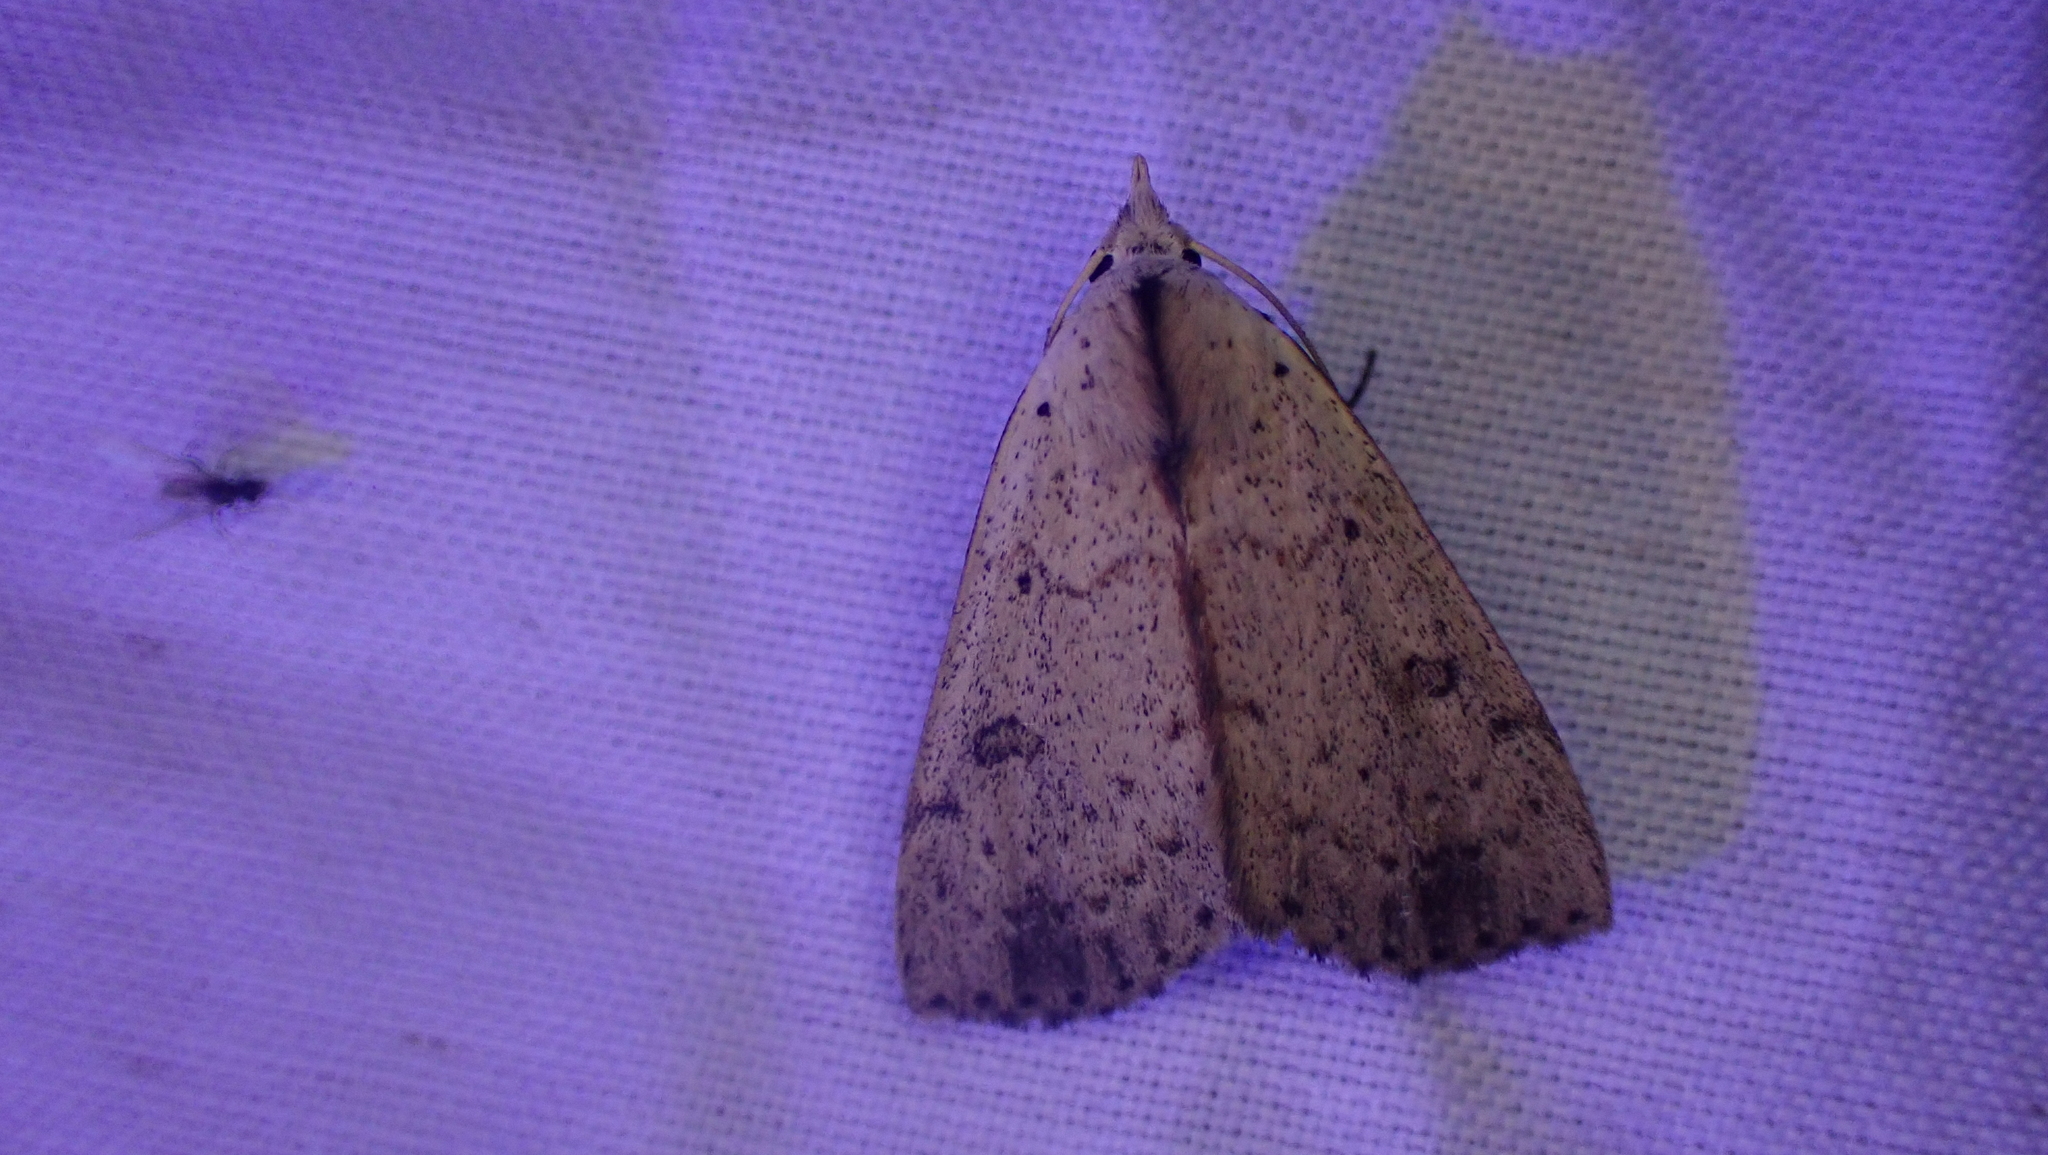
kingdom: Animalia
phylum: Arthropoda
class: Insecta
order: Lepidoptera
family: Erebidae
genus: Scolecocampa
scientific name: Scolecocampa liburna
